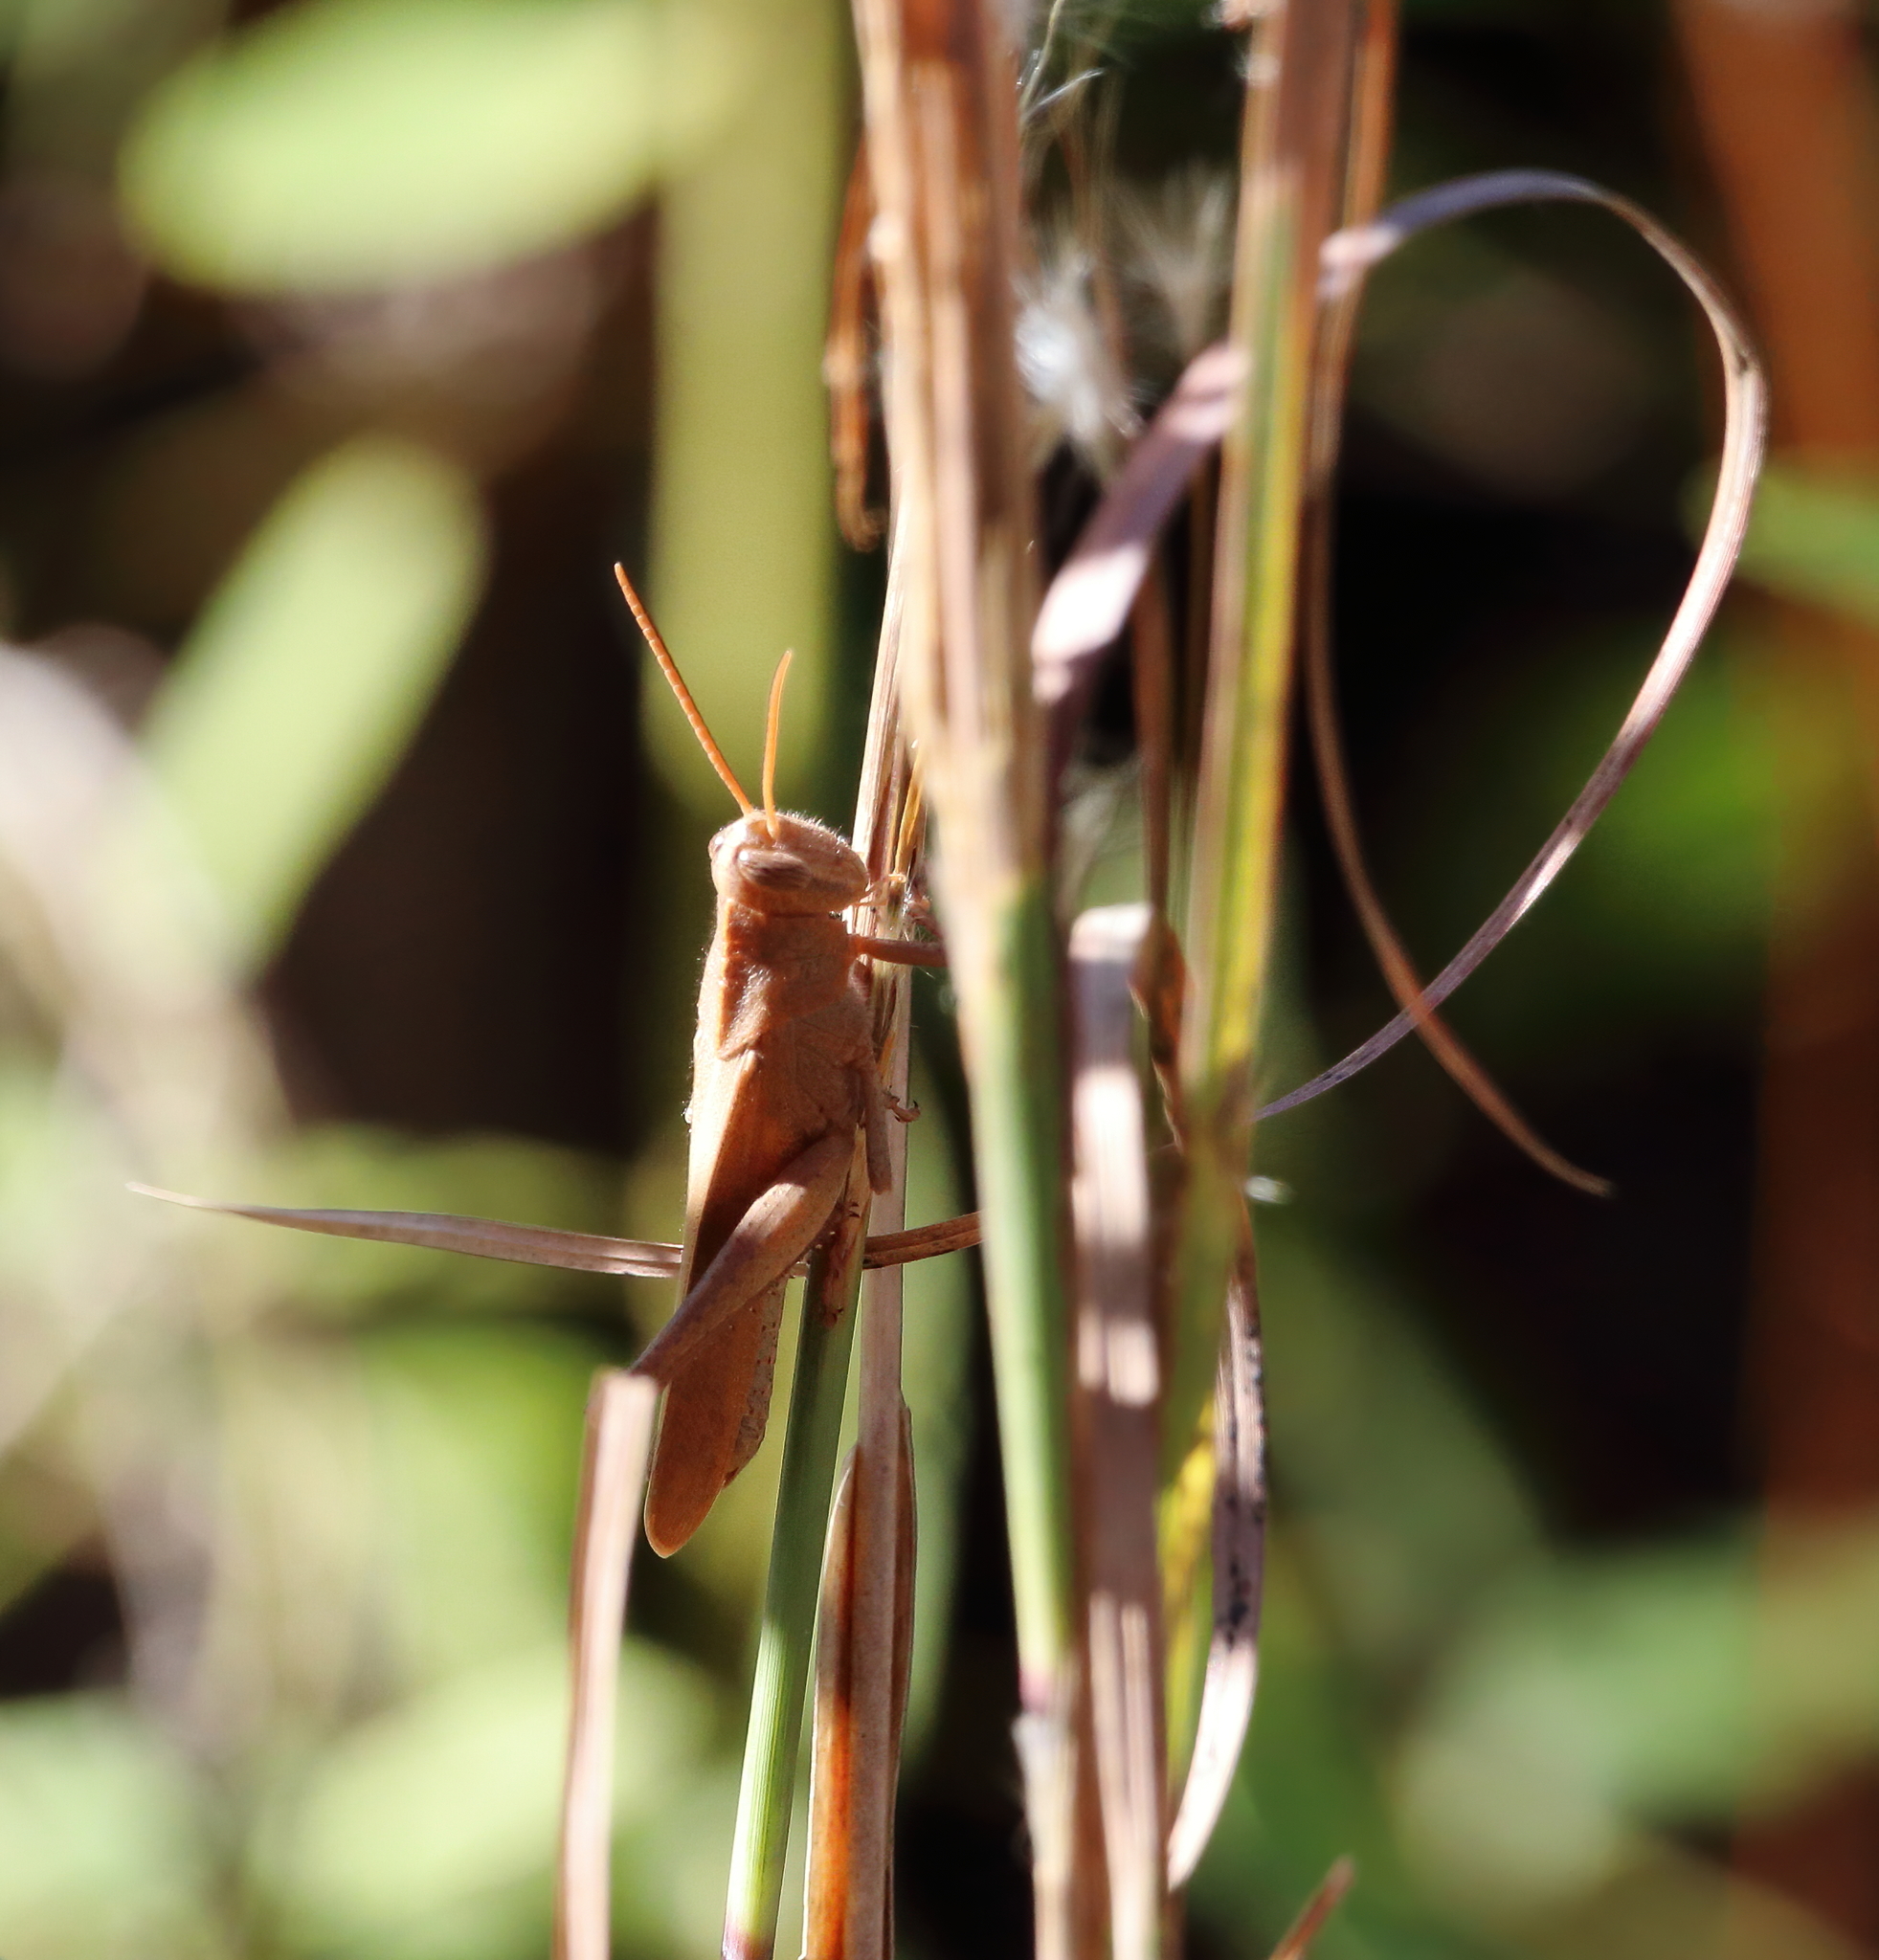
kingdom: Animalia
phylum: Arthropoda
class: Insecta
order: Orthoptera
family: Acrididae
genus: Schistocerca
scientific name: Schistocerca damnifica
